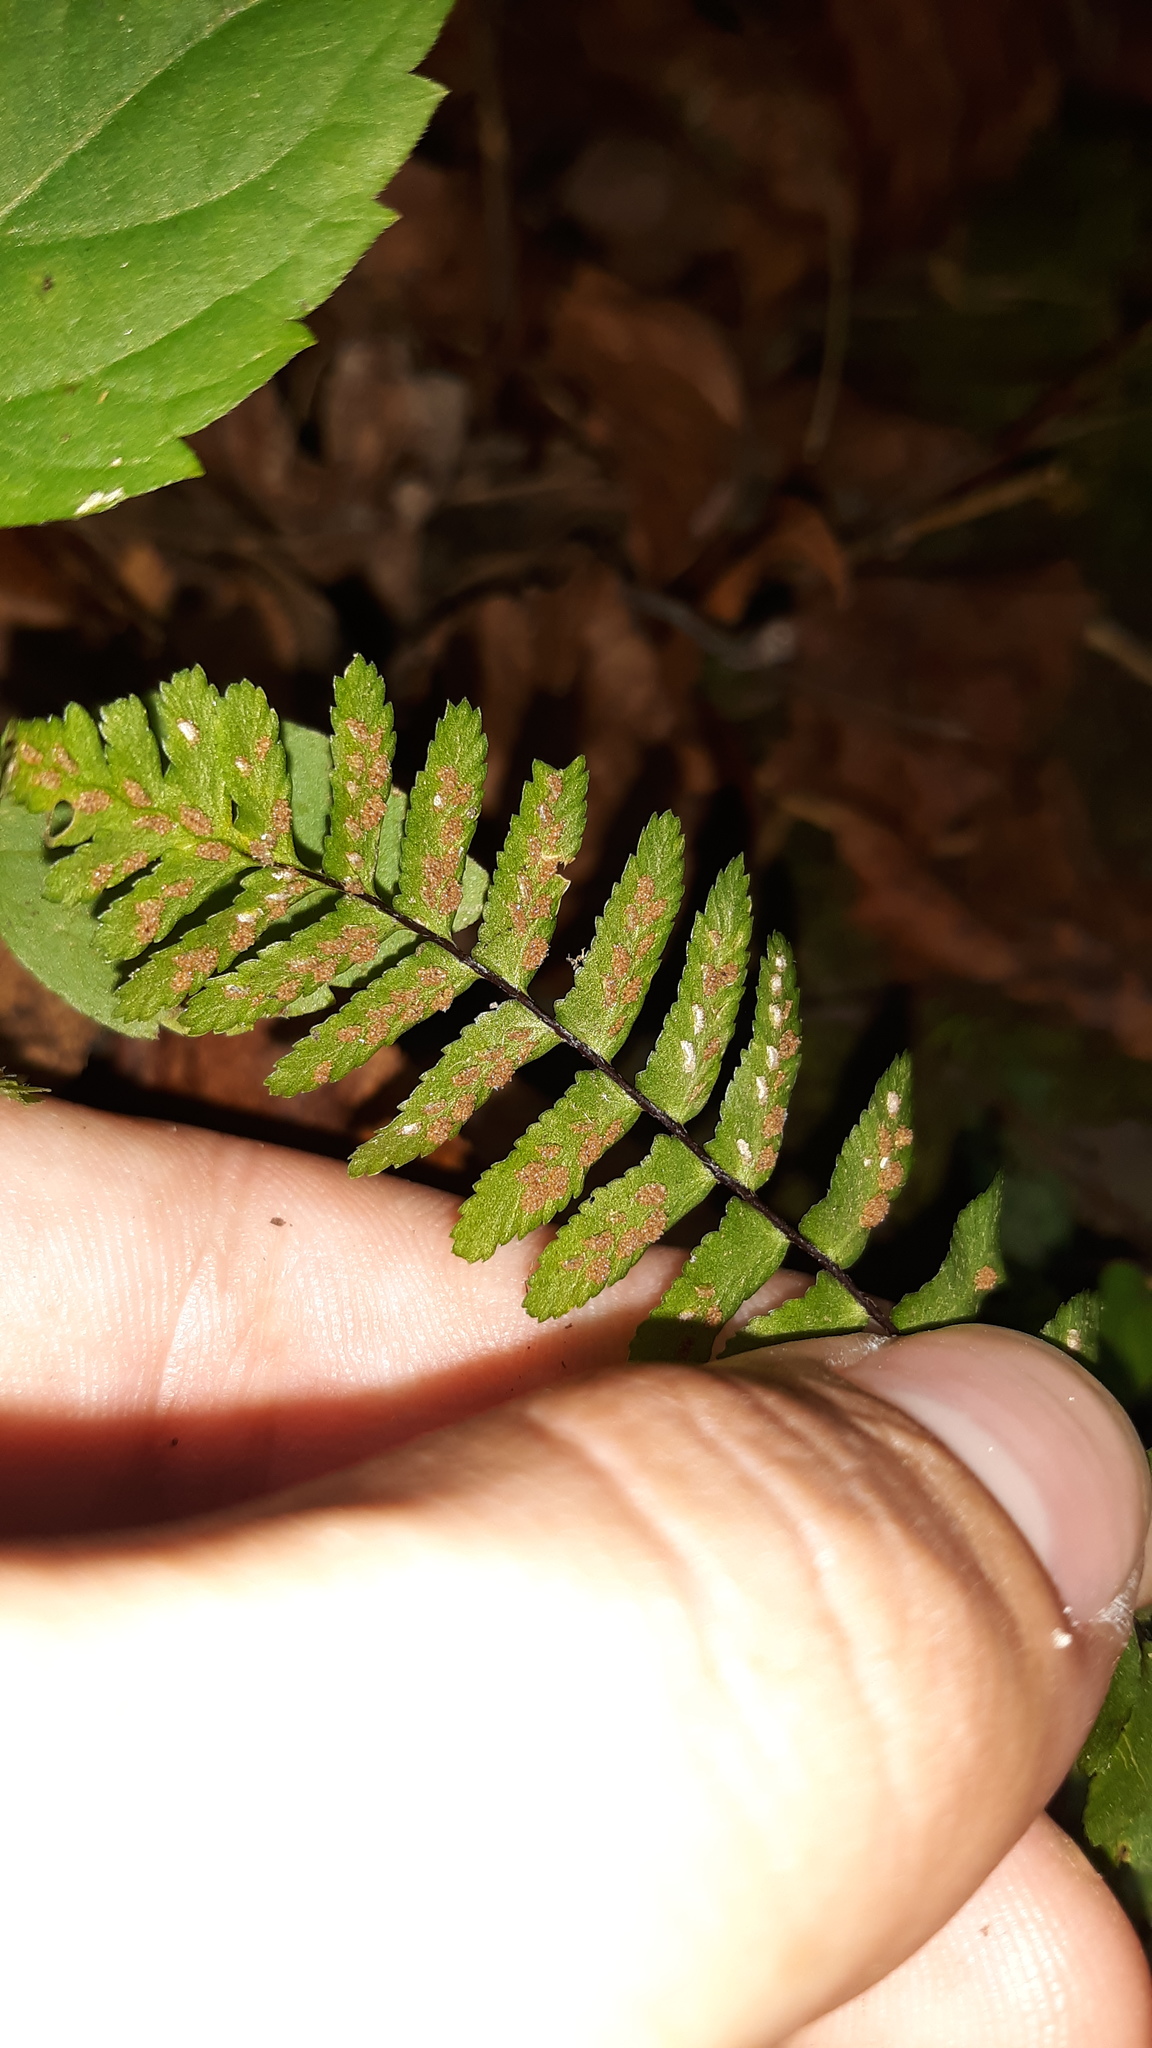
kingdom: Plantae
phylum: Tracheophyta
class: Polypodiopsida
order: Polypodiales
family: Aspleniaceae
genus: Asplenium
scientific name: Asplenium platyneuron
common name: Ebony spleenwort
